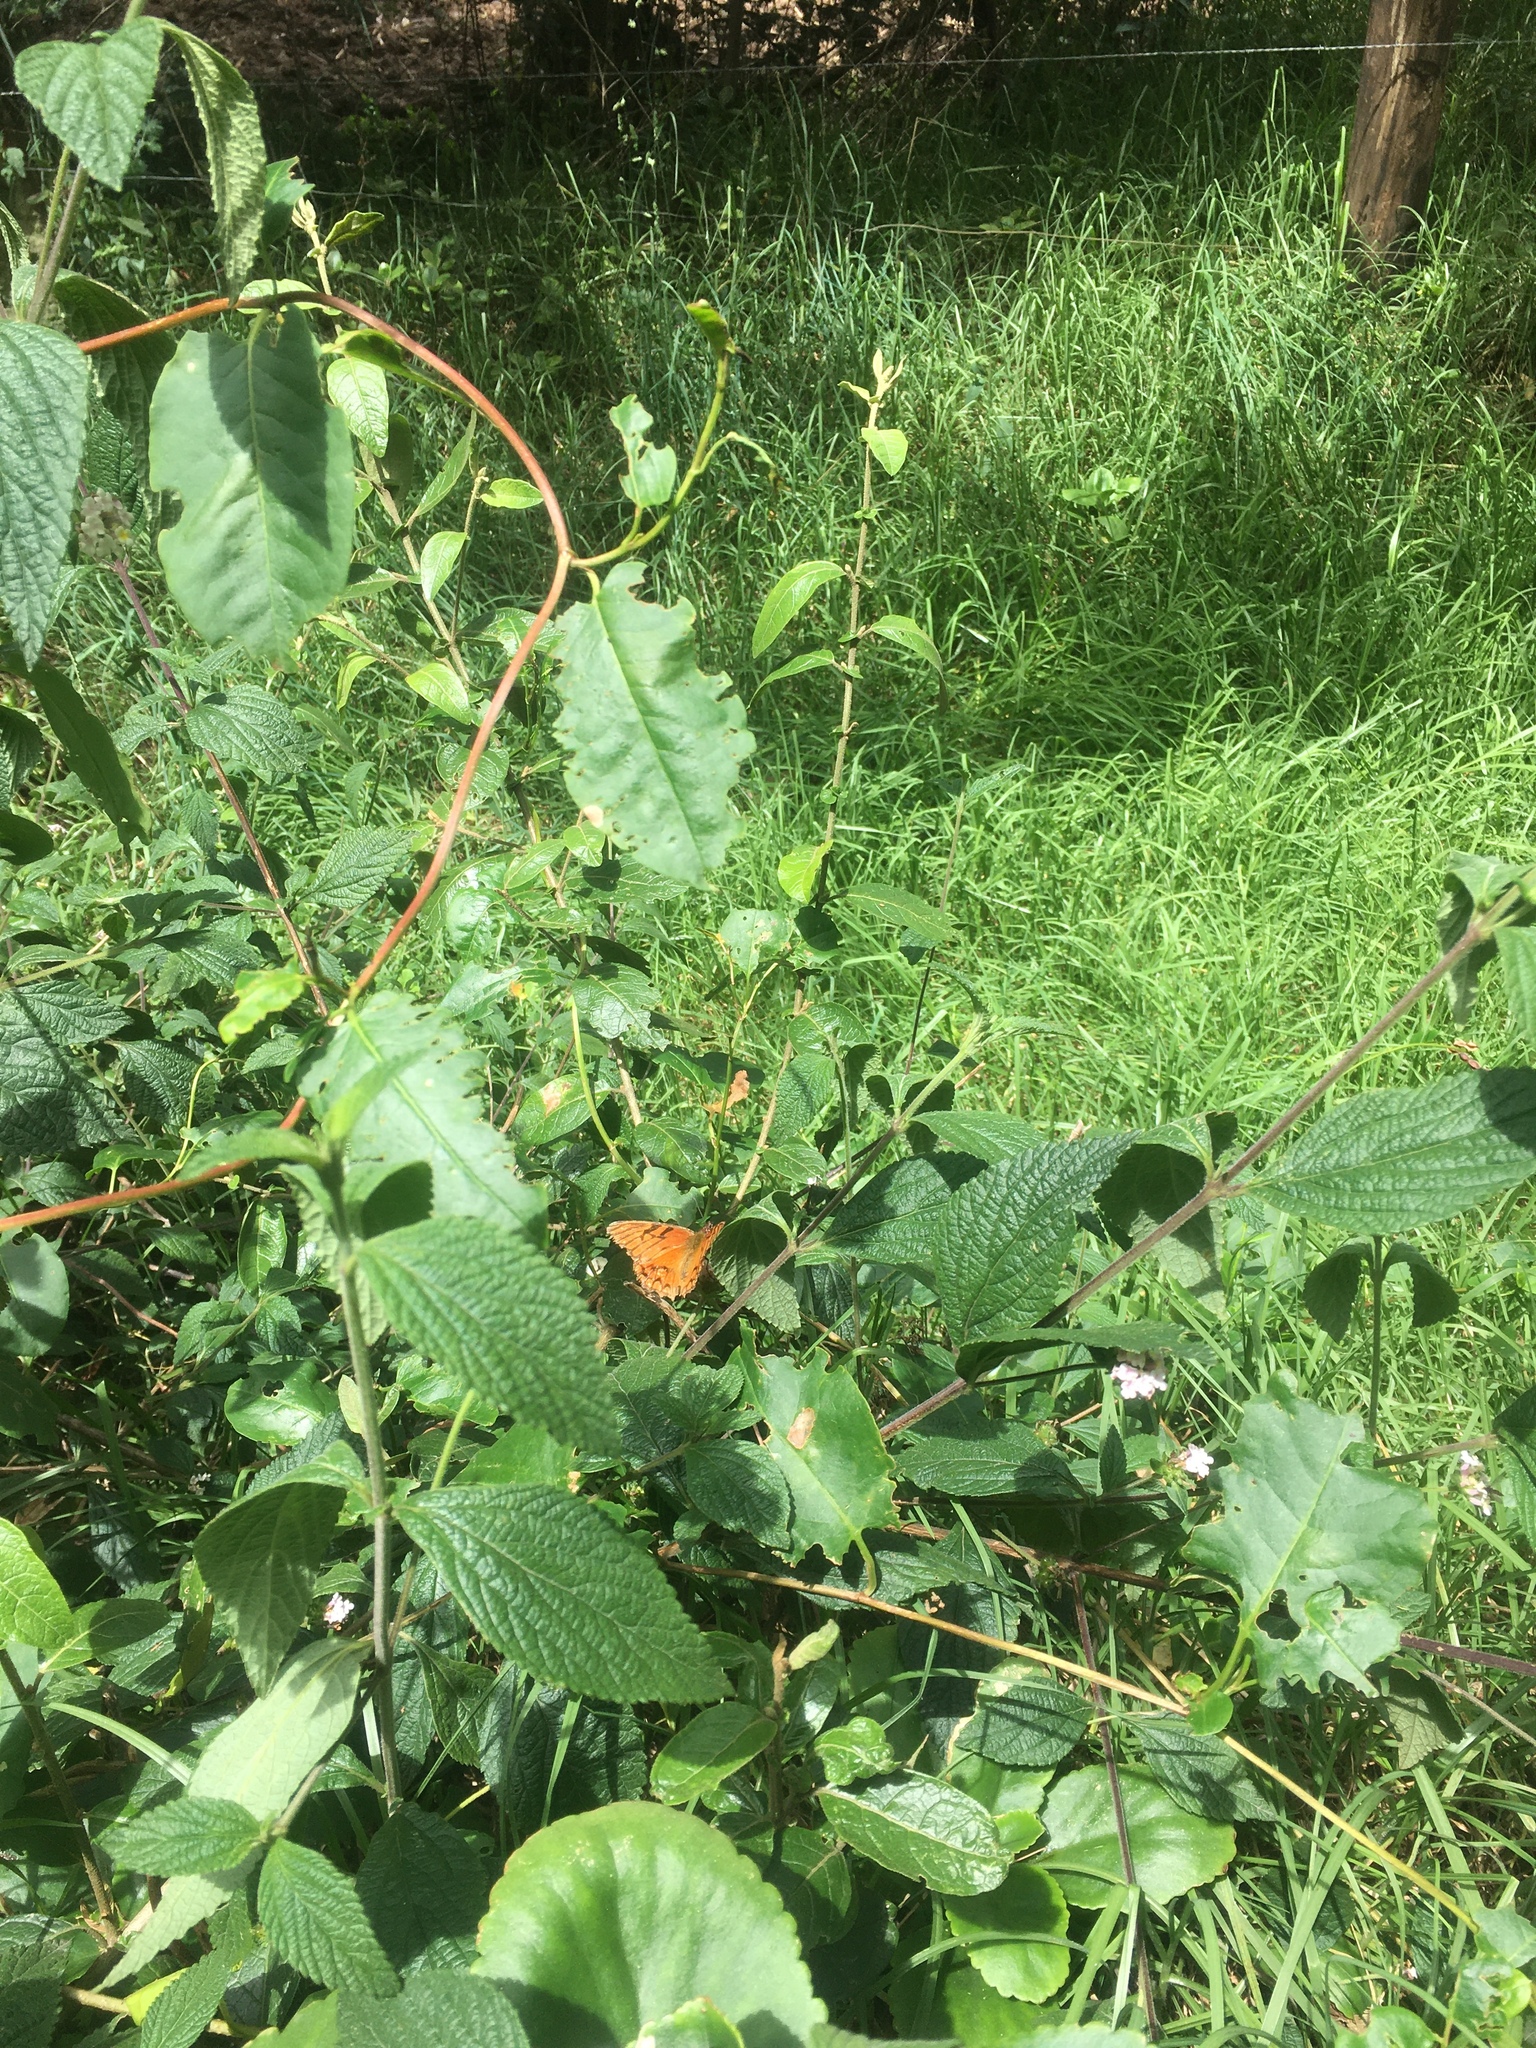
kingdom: Animalia
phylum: Arthropoda
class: Insecta
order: Lepidoptera
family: Nymphalidae
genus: Dione
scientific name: Dione glycera
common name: Andean silverspot
